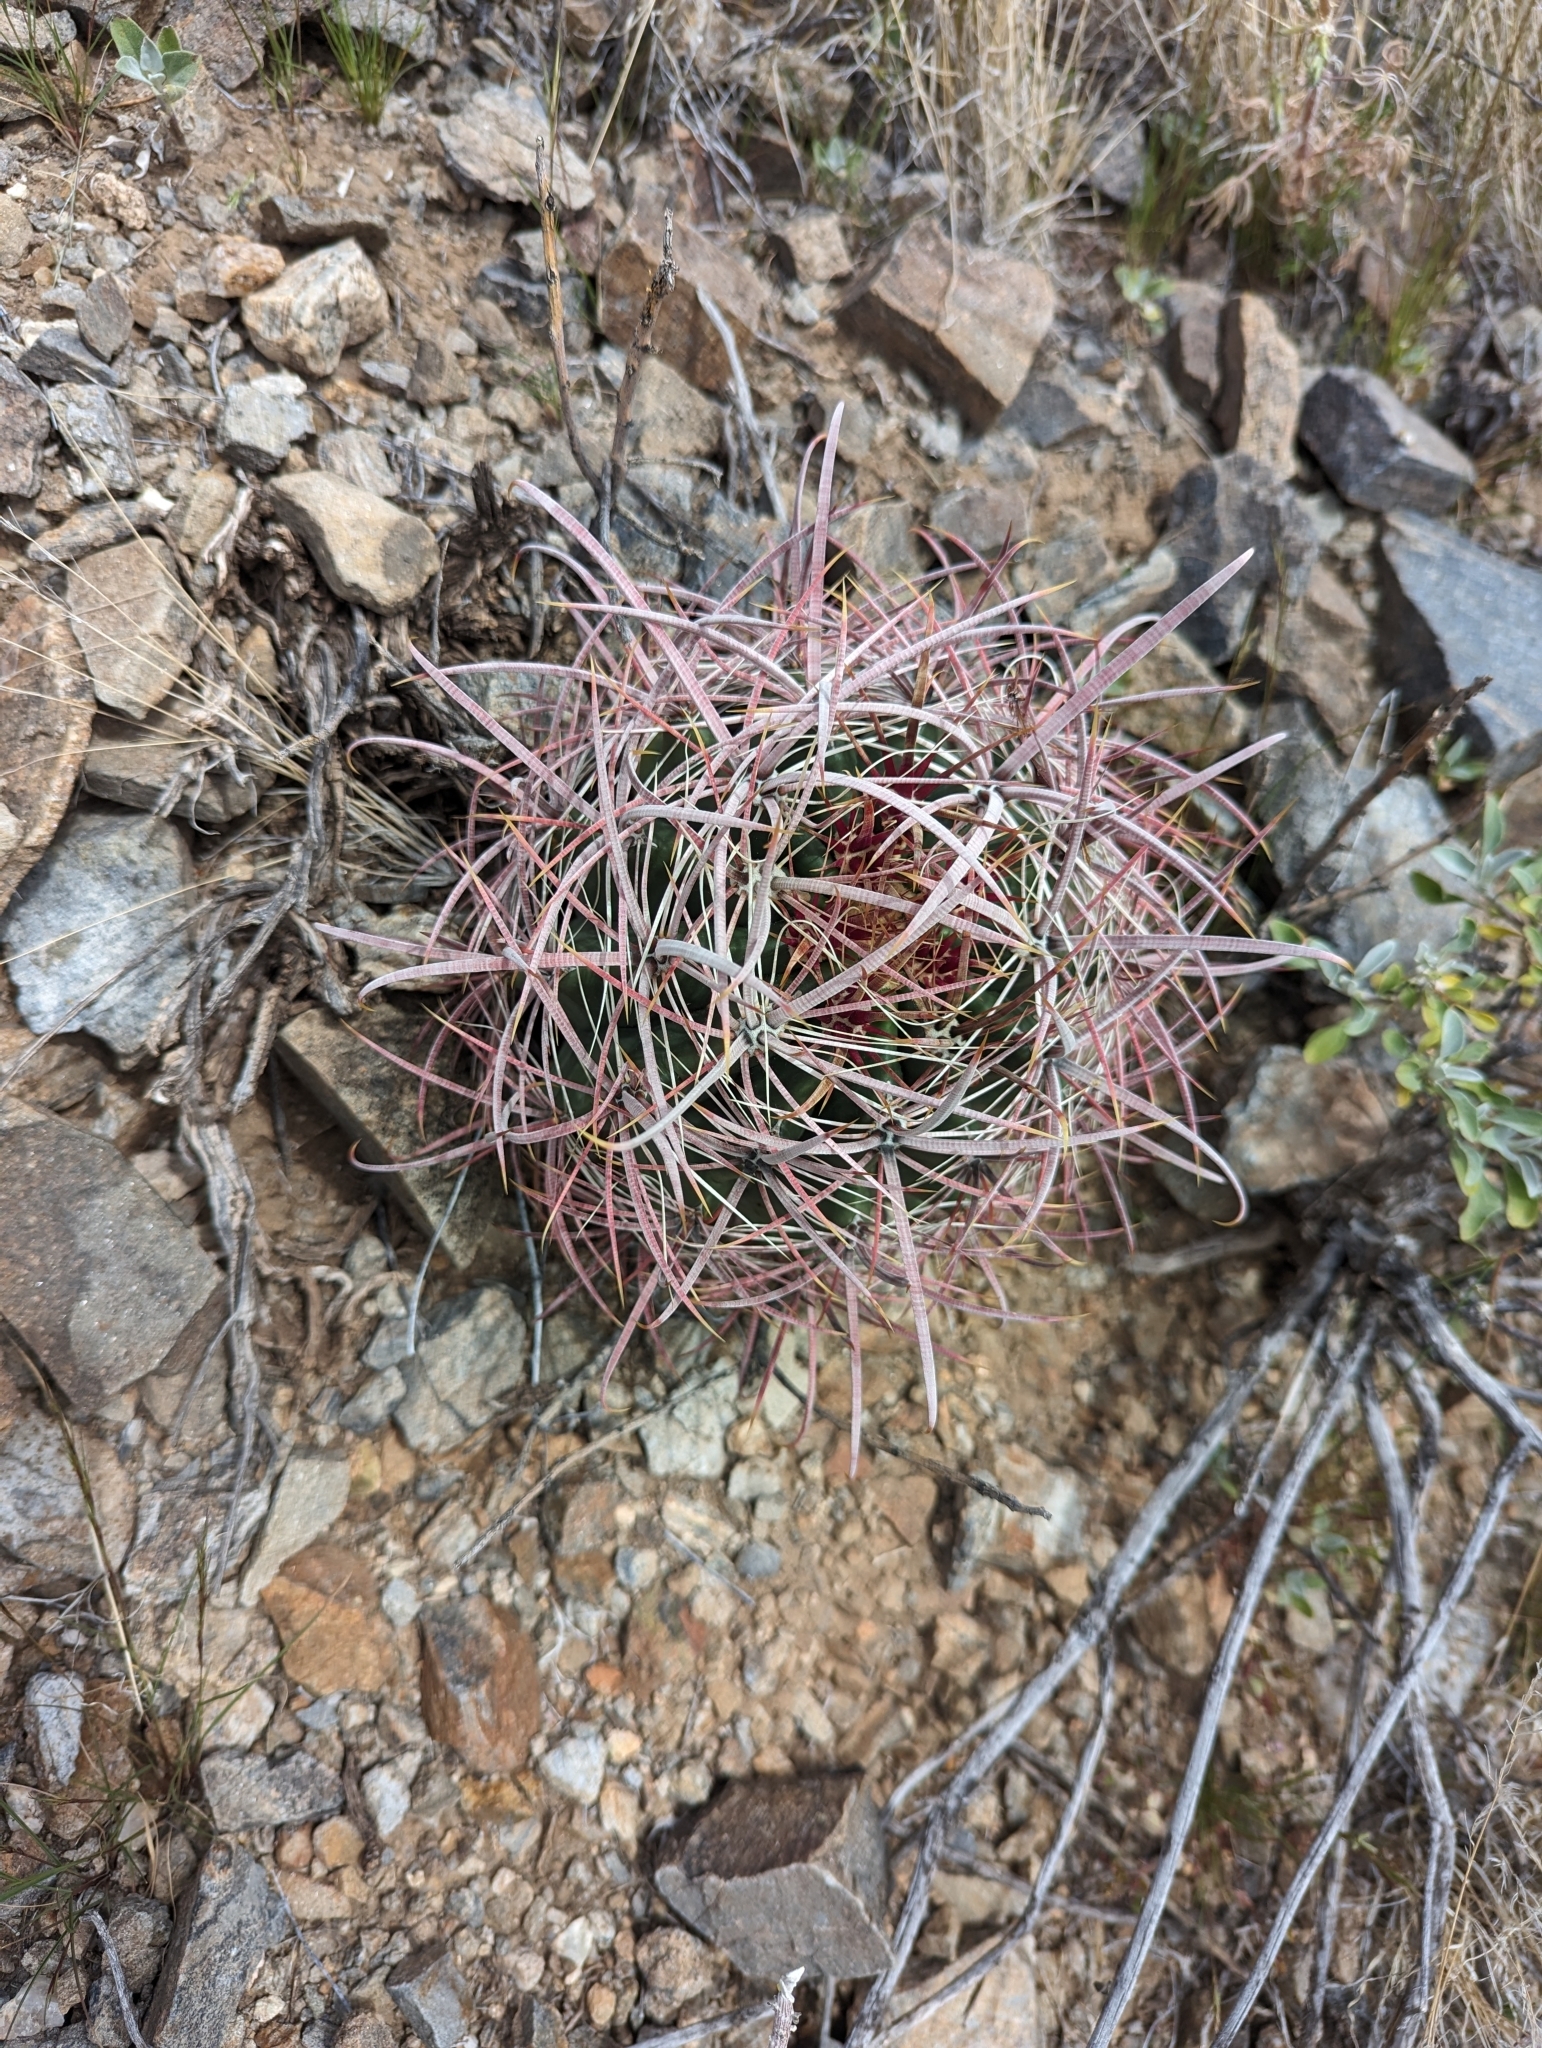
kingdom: Plantae
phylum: Tracheophyta
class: Magnoliopsida
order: Caryophyllales
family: Cactaceae
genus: Ferocactus
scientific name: Ferocactus cylindraceus
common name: California barrel cactus
